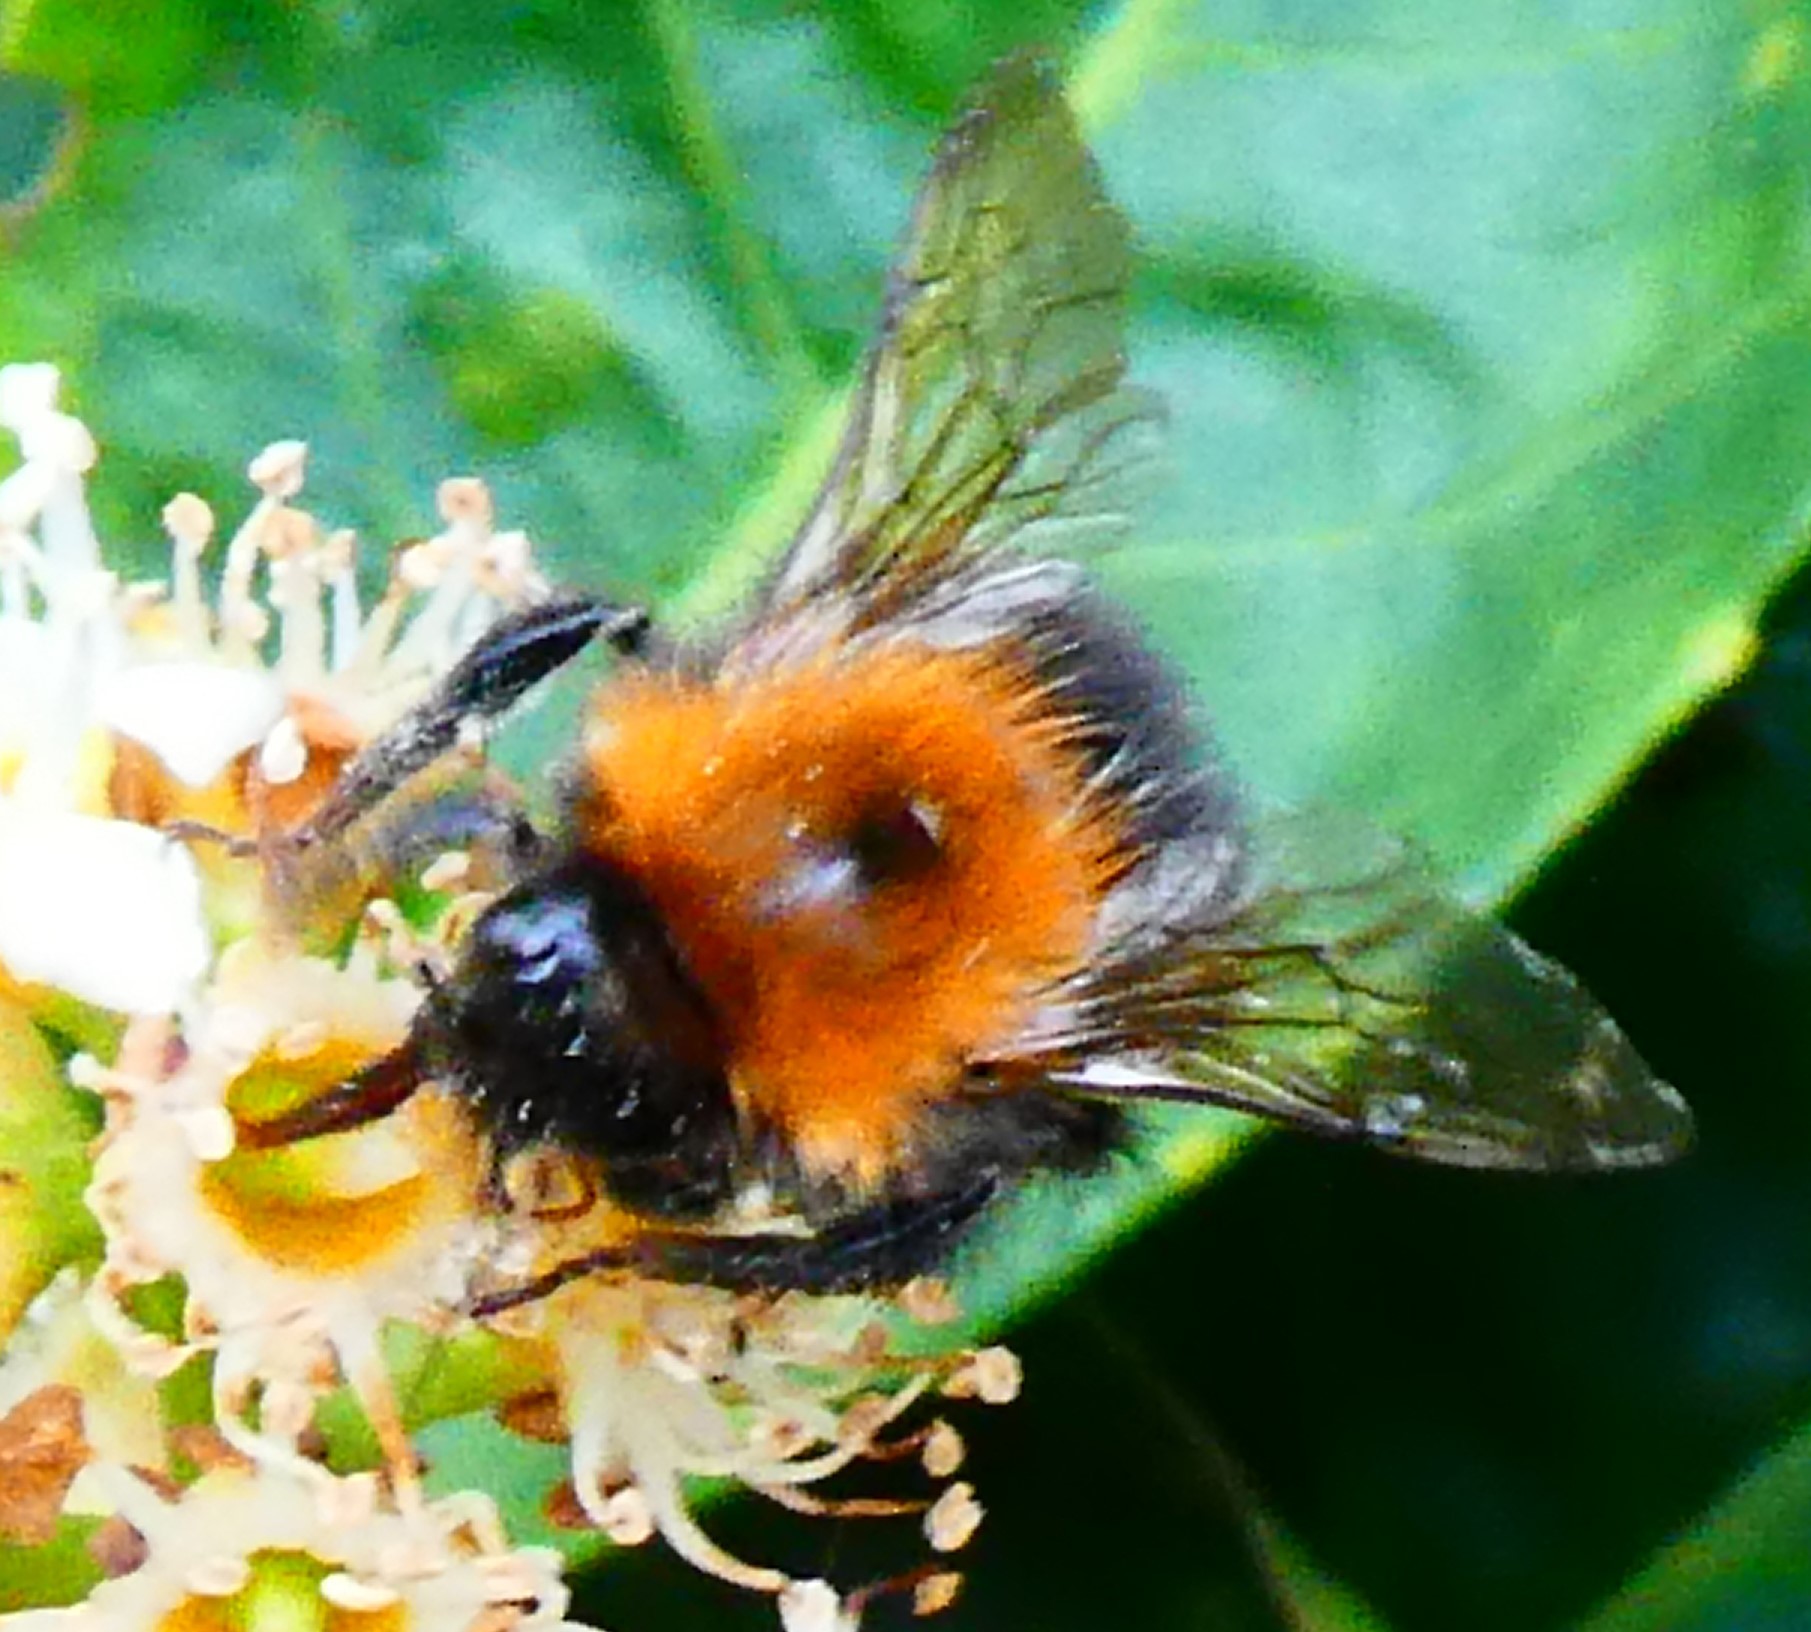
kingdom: Animalia
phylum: Arthropoda
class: Insecta
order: Hymenoptera
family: Apidae
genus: Bombus
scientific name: Bombus hypnorum
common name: New garden bumblebee
